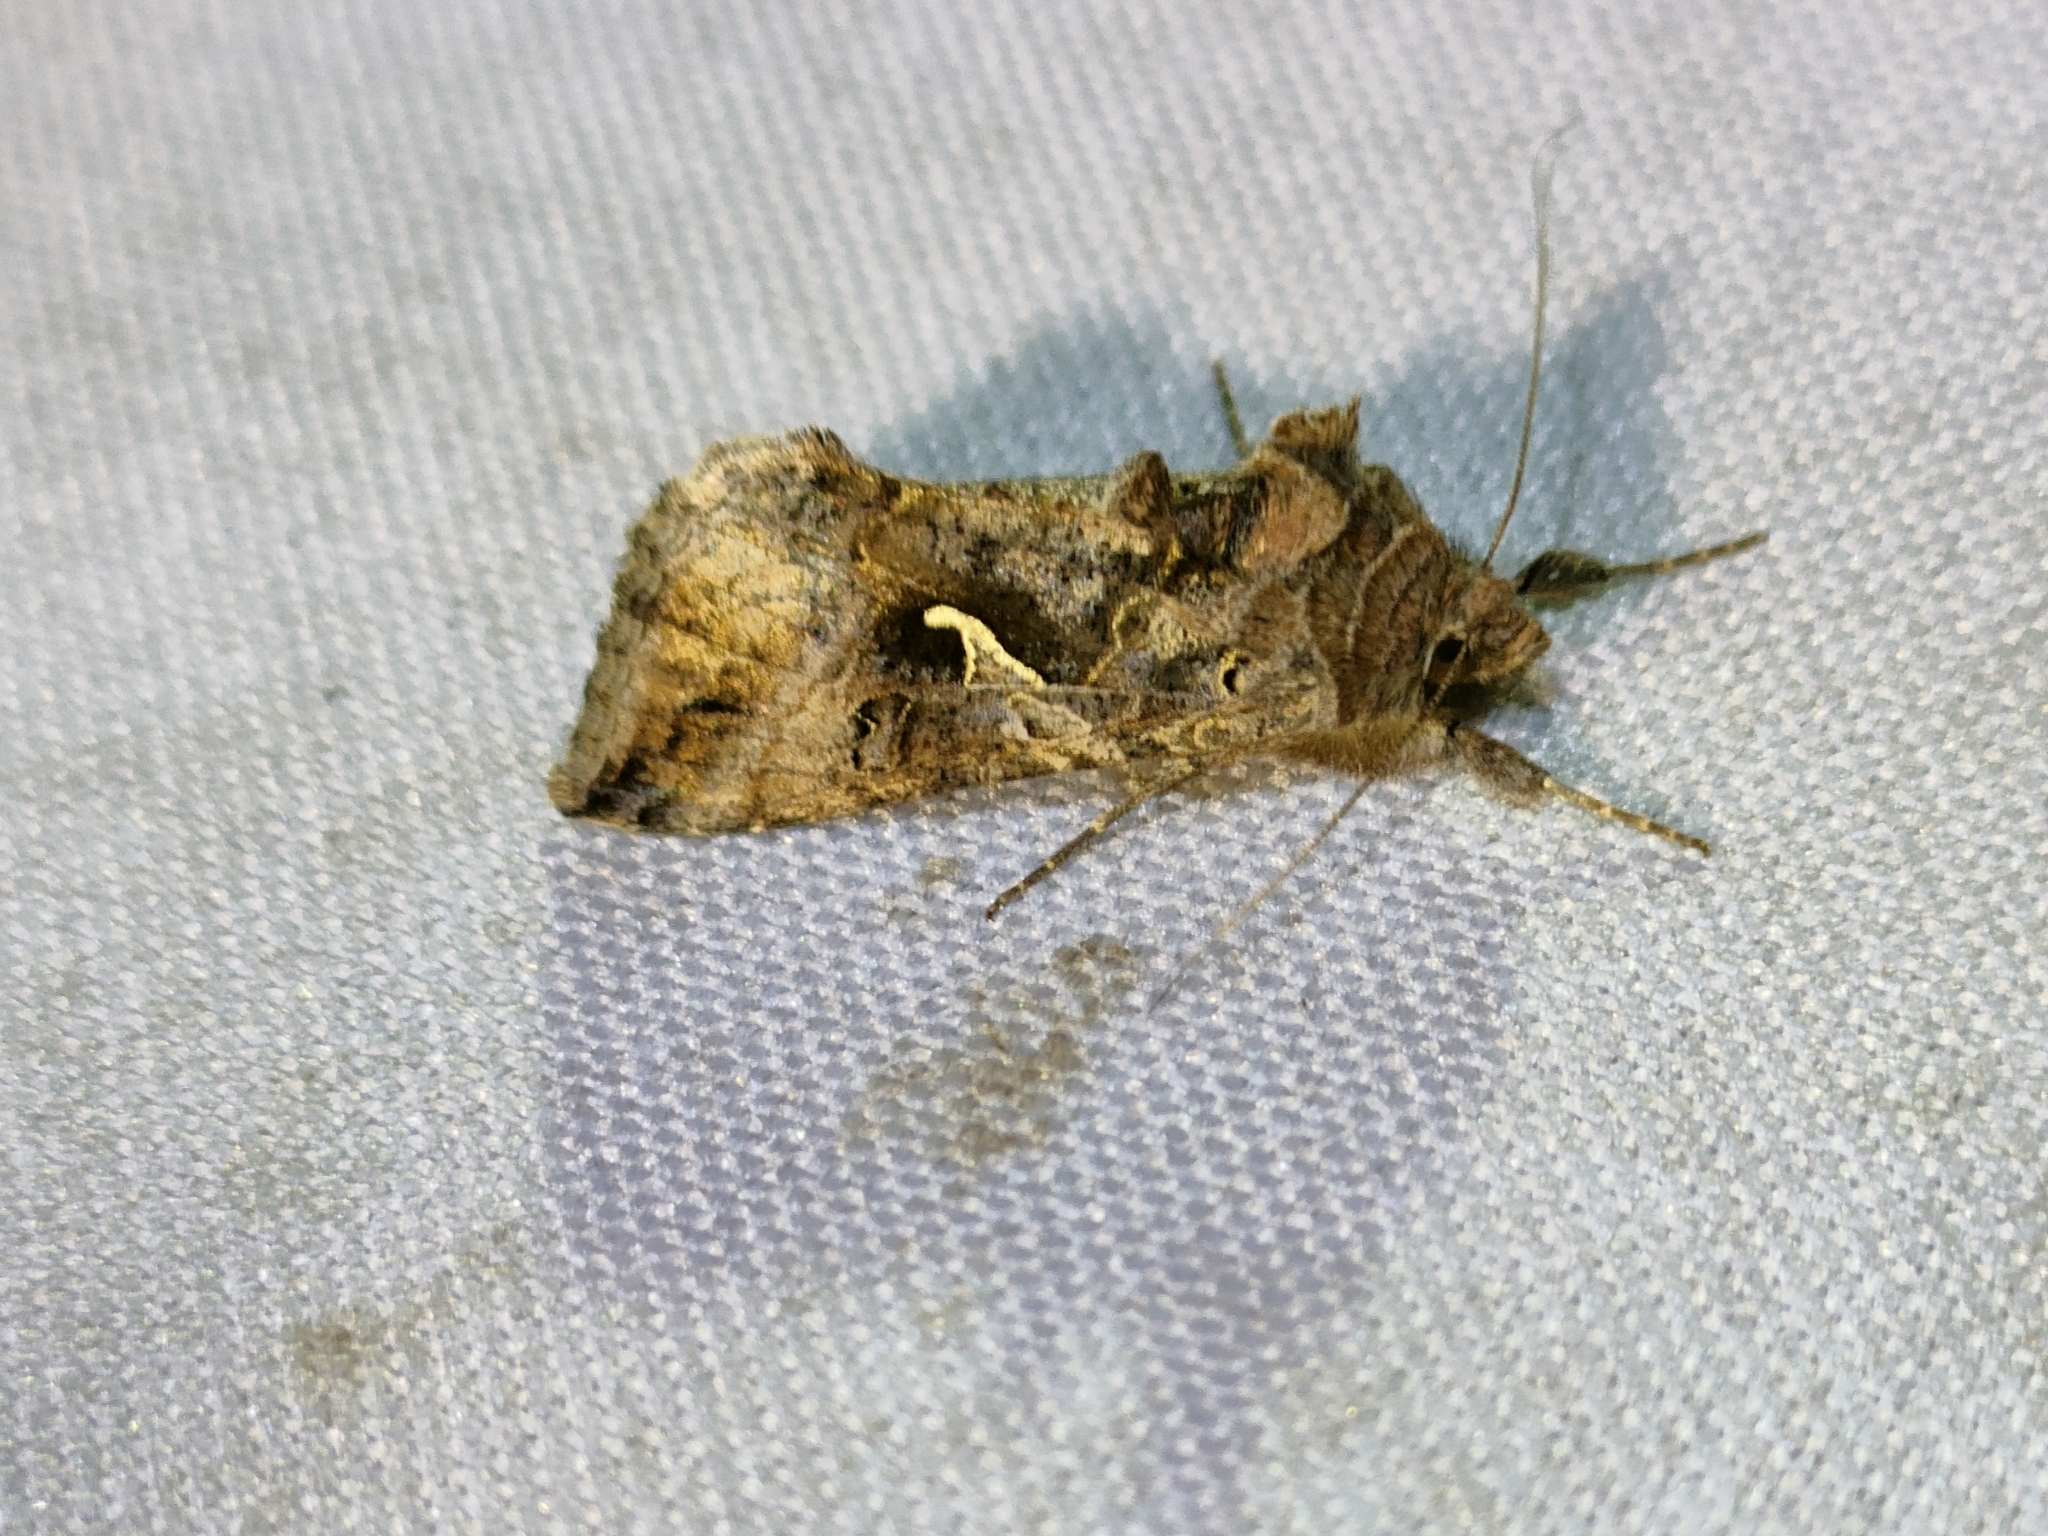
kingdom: Animalia
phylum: Arthropoda
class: Insecta
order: Lepidoptera
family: Noctuidae
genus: Autographa
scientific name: Autographa gamma
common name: Silver y
